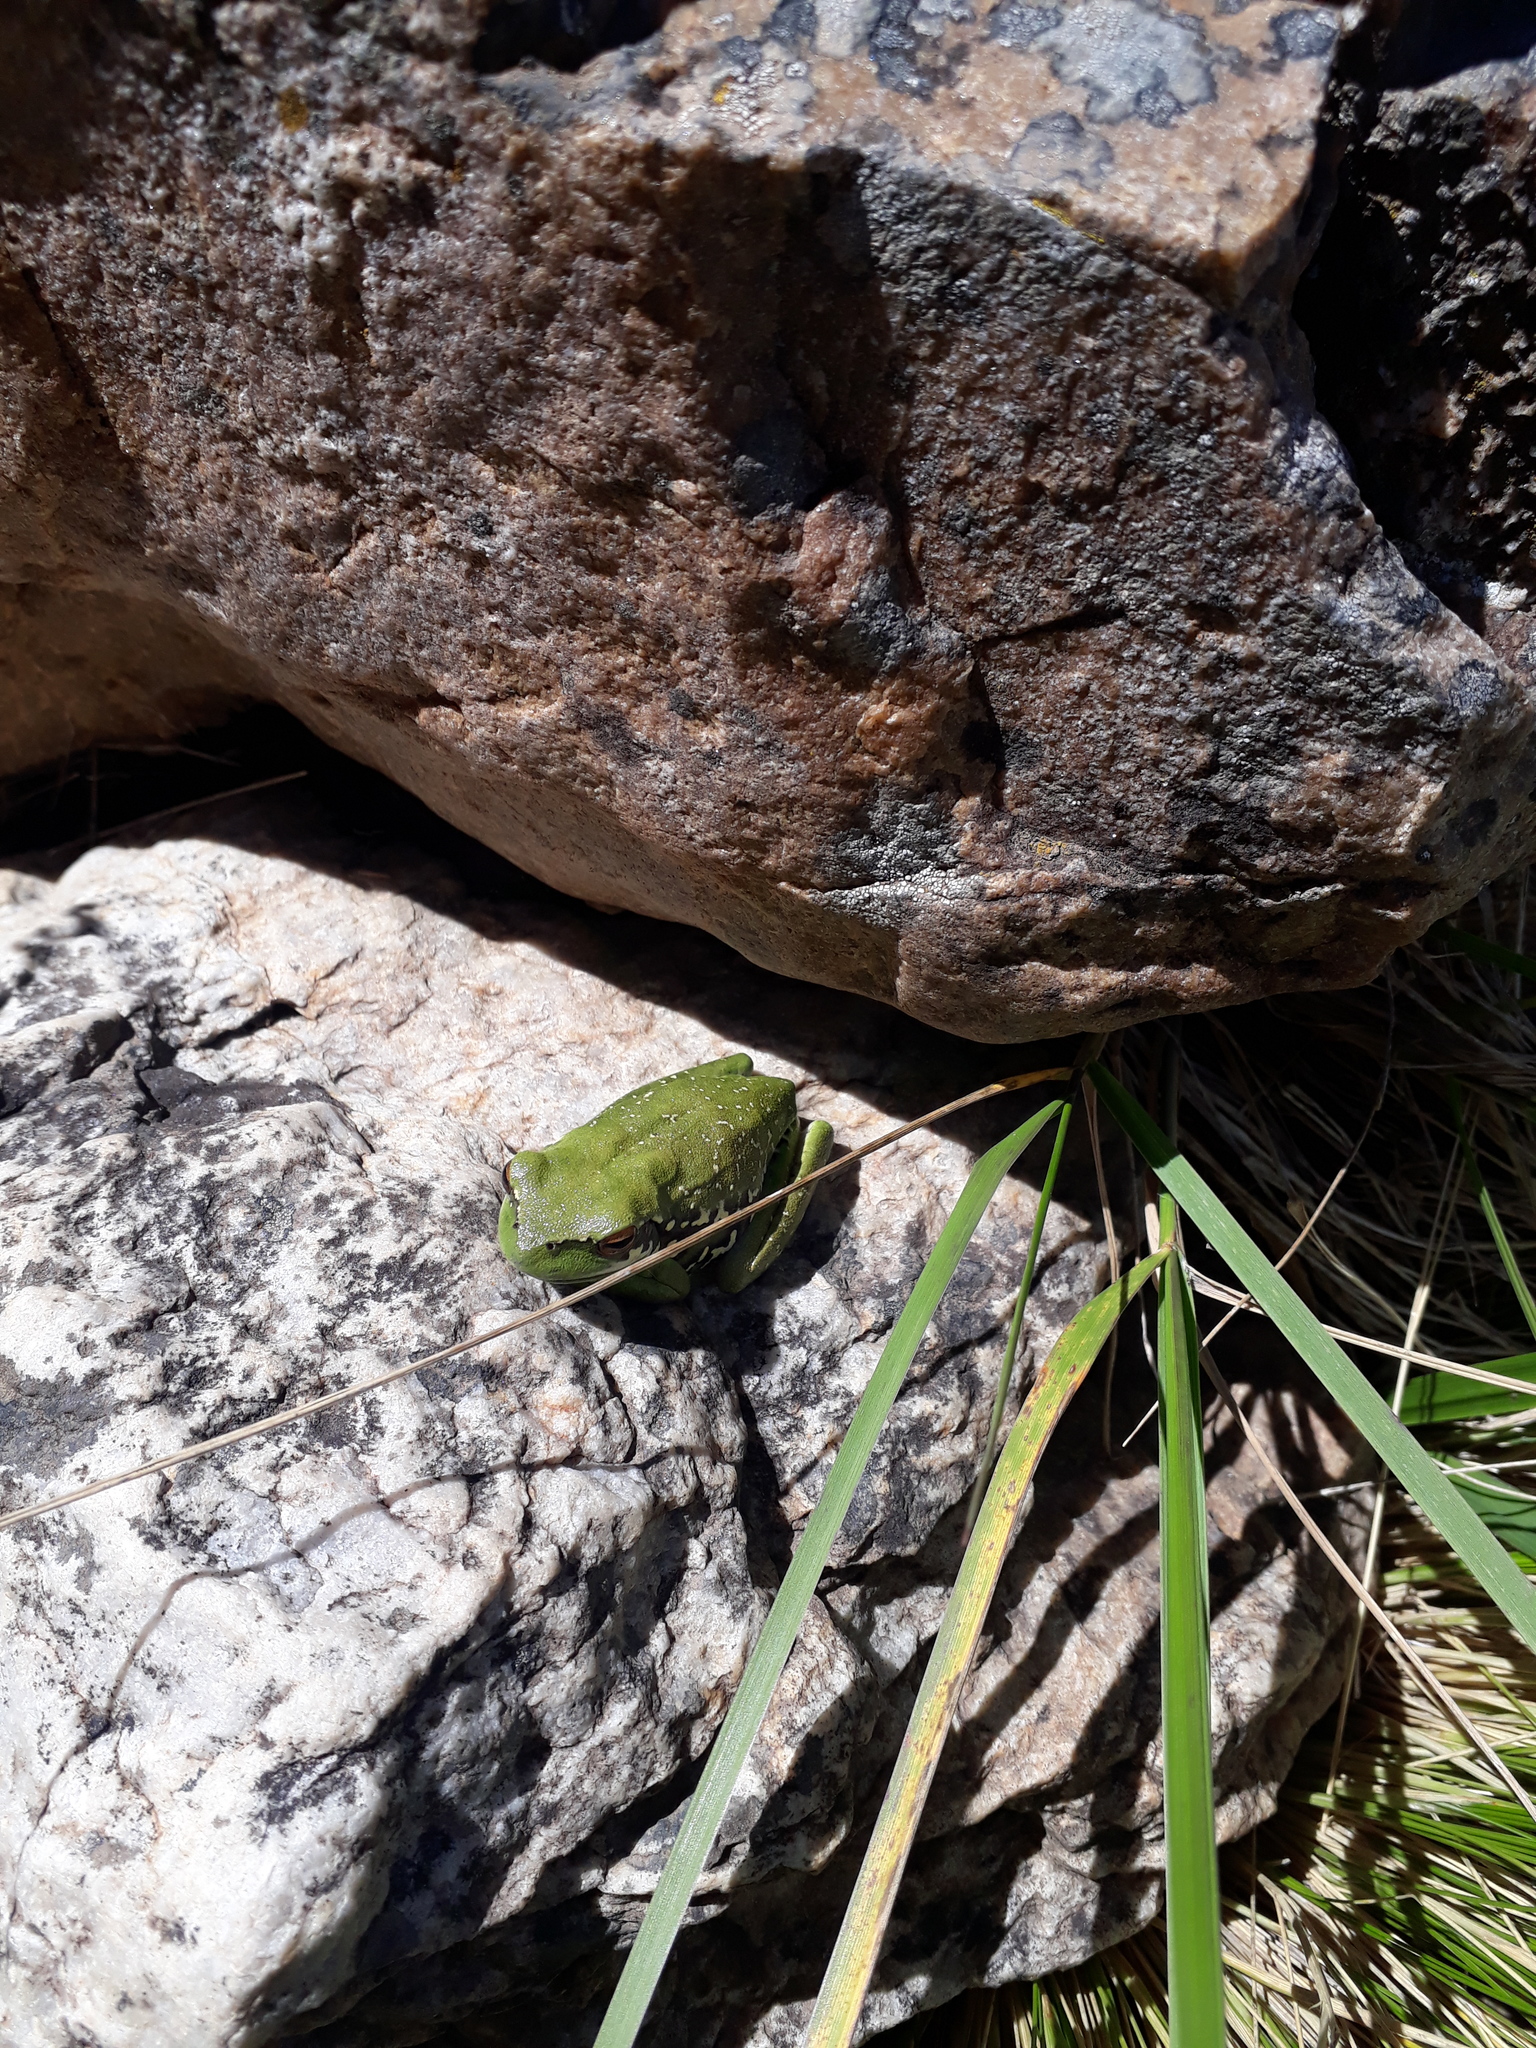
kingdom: Animalia
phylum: Chordata
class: Amphibia
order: Anura
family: Hylidae
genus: Boana
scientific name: Boana pulchella
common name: Montevideo treefrog
